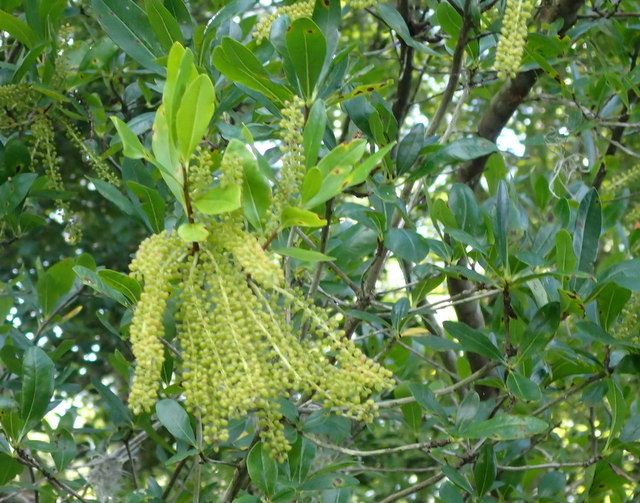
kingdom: Plantae
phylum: Tracheophyta
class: Magnoliopsida
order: Ericales
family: Cyrillaceae
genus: Cyrilla
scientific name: Cyrilla racemiflora
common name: Black titi
